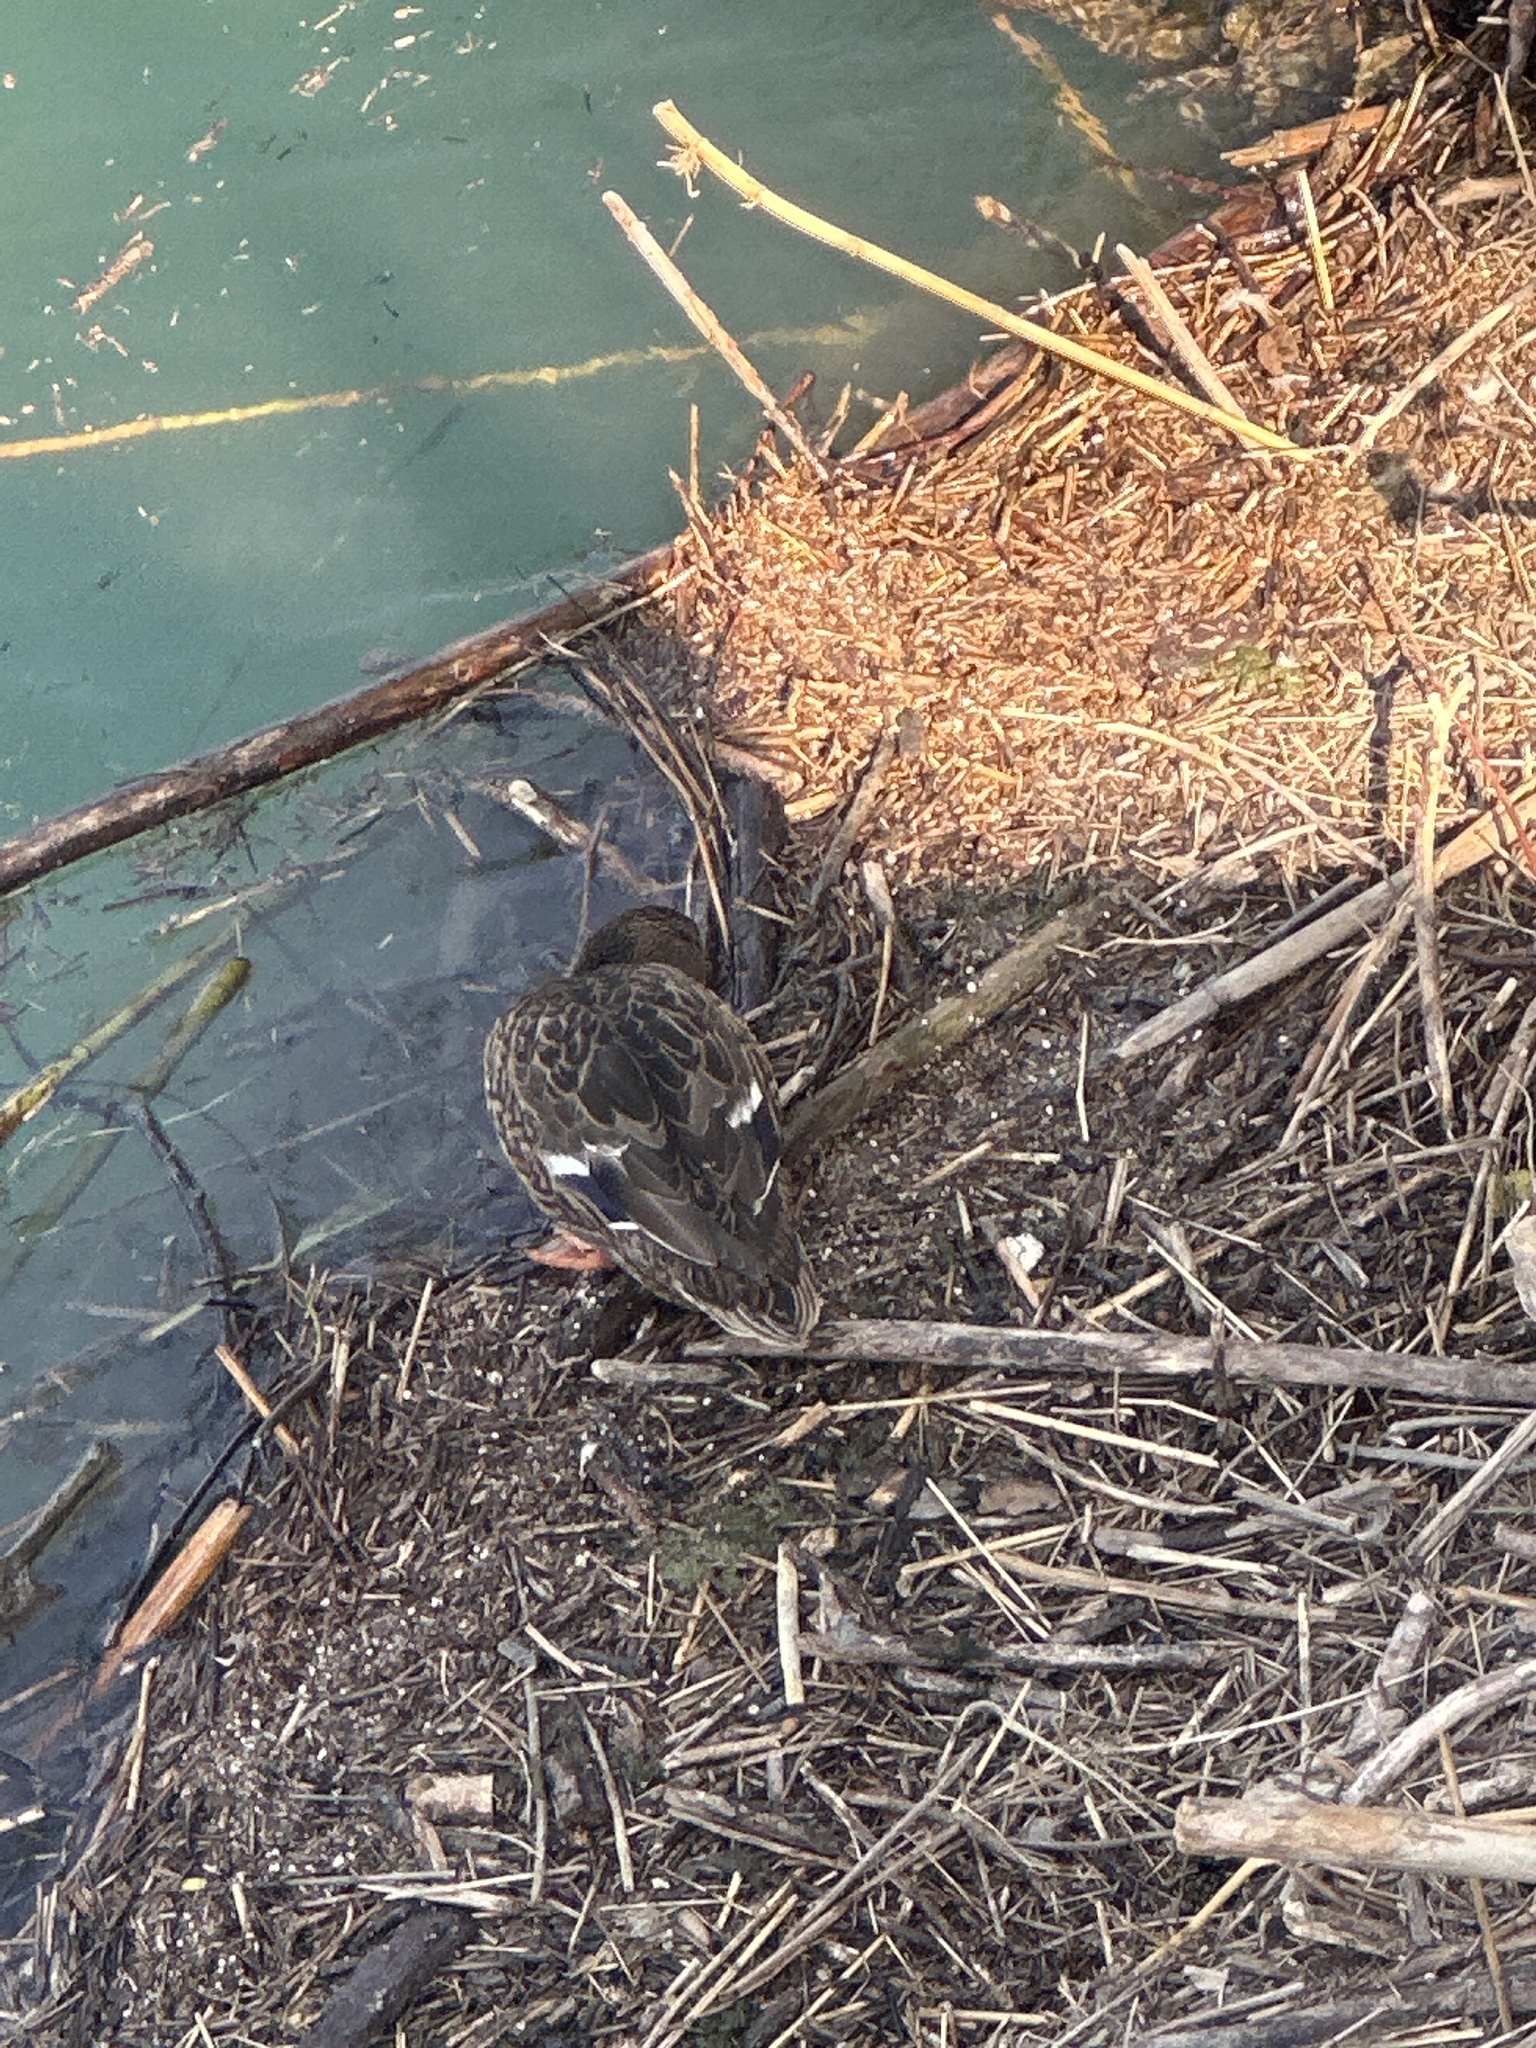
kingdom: Animalia
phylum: Chordata
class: Aves
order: Anseriformes
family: Anatidae
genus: Anas
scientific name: Anas platyrhynchos
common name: Mallard
